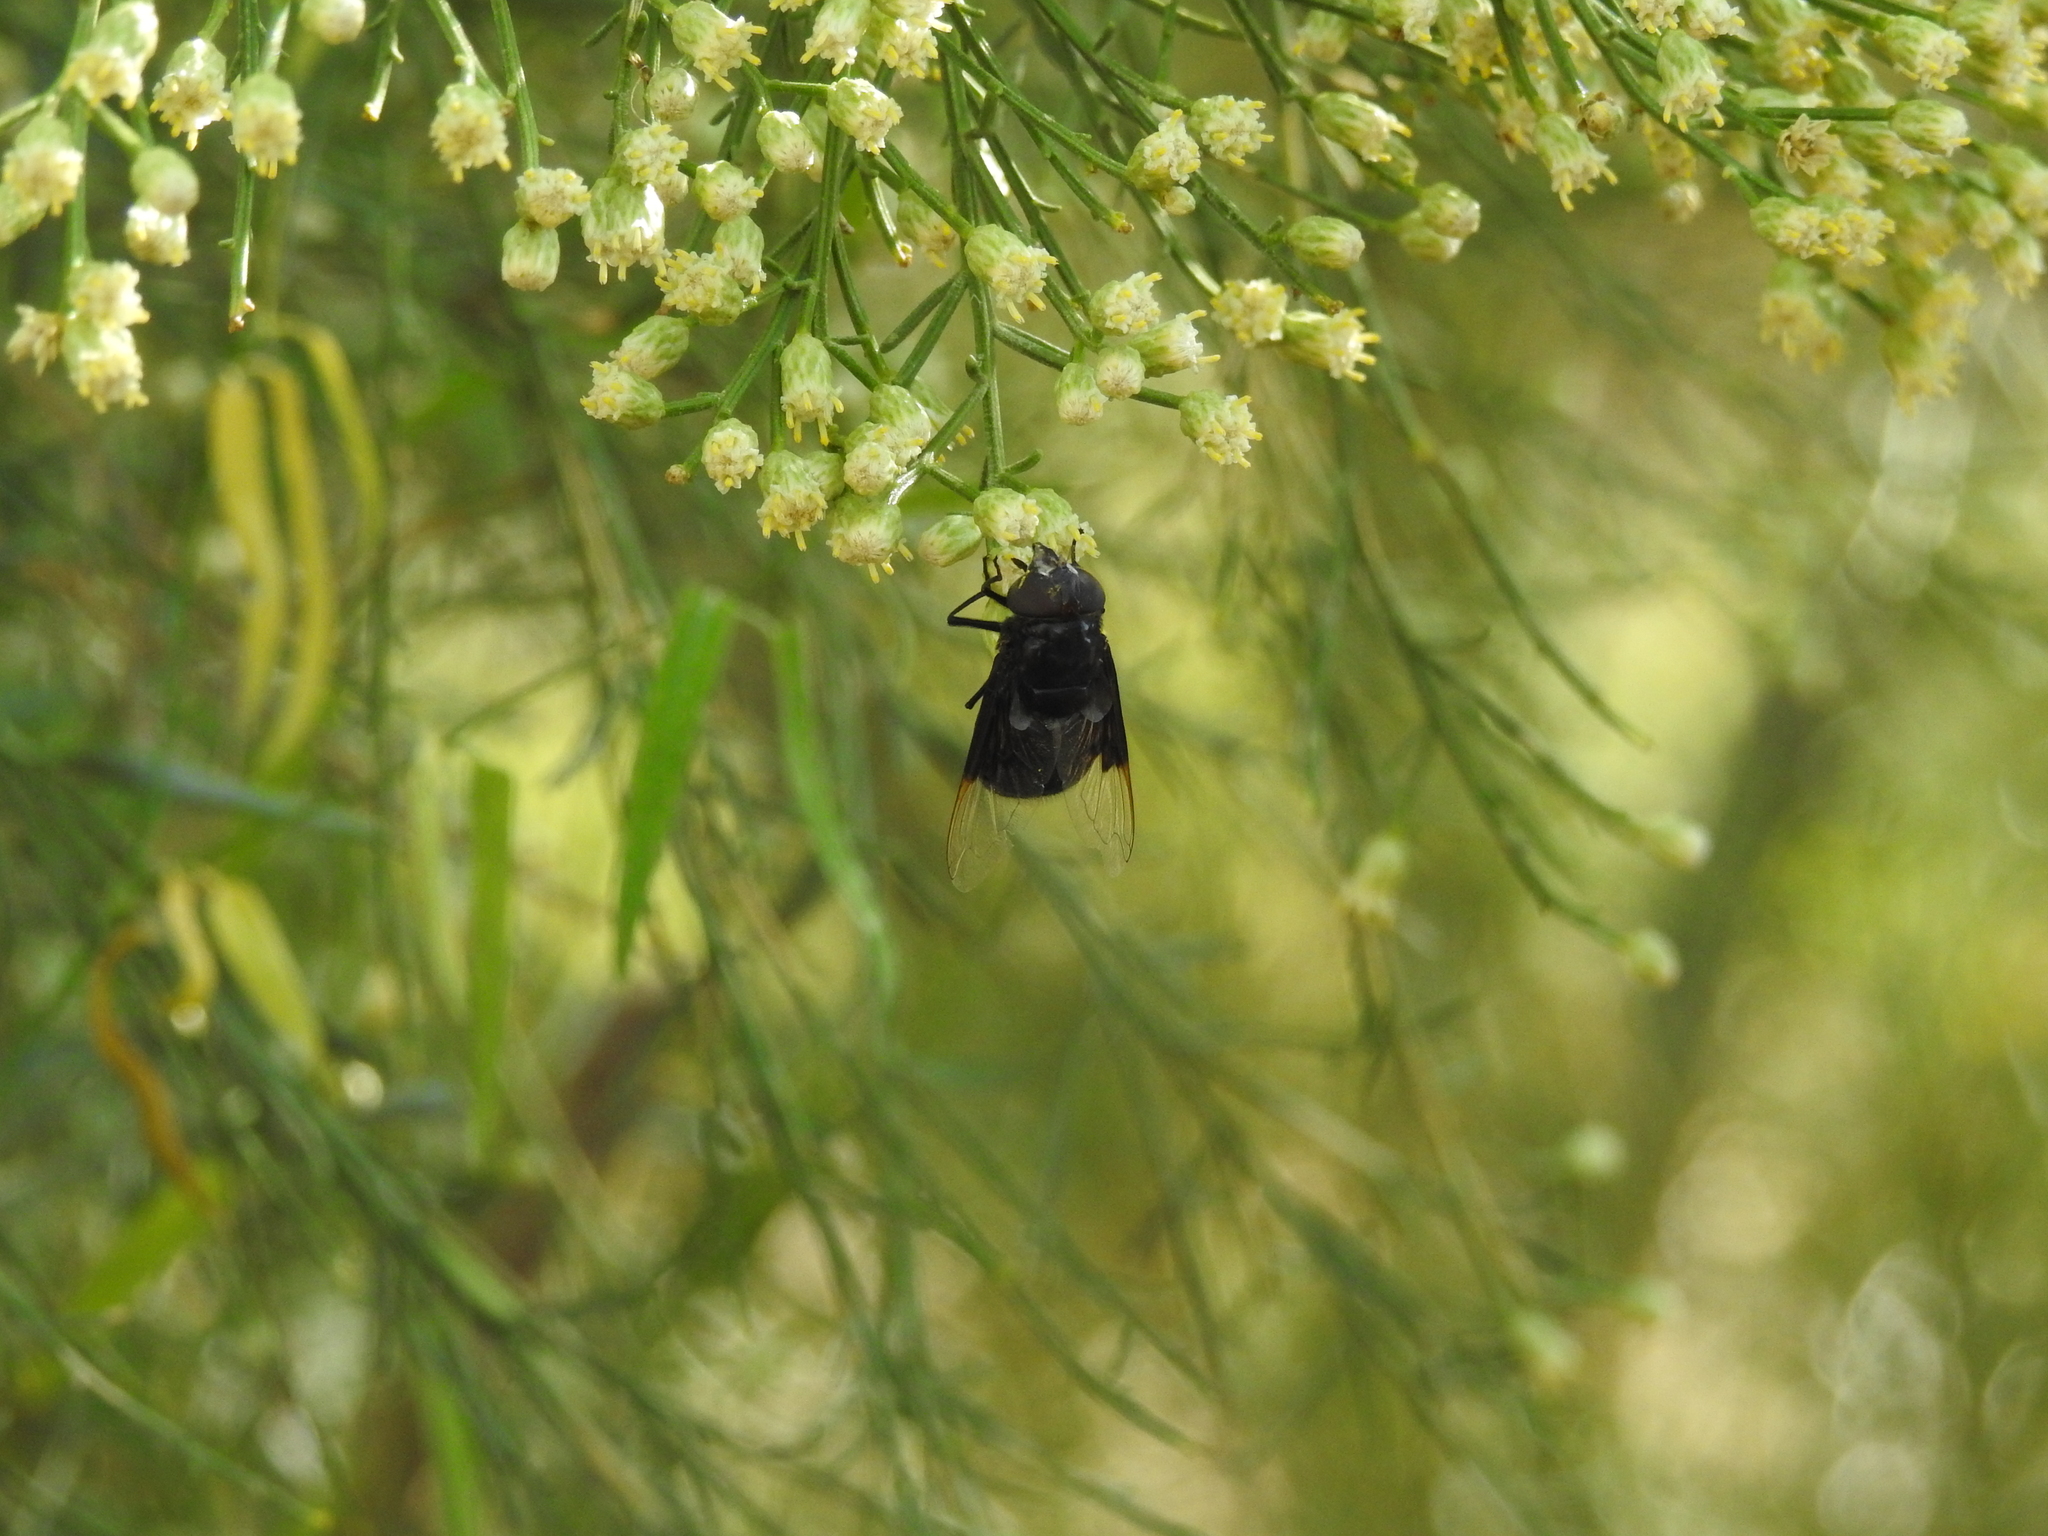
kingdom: Animalia
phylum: Arthropoda
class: Insecta
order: Diptera
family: Syrphidae
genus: Copestylum
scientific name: Copestylum
